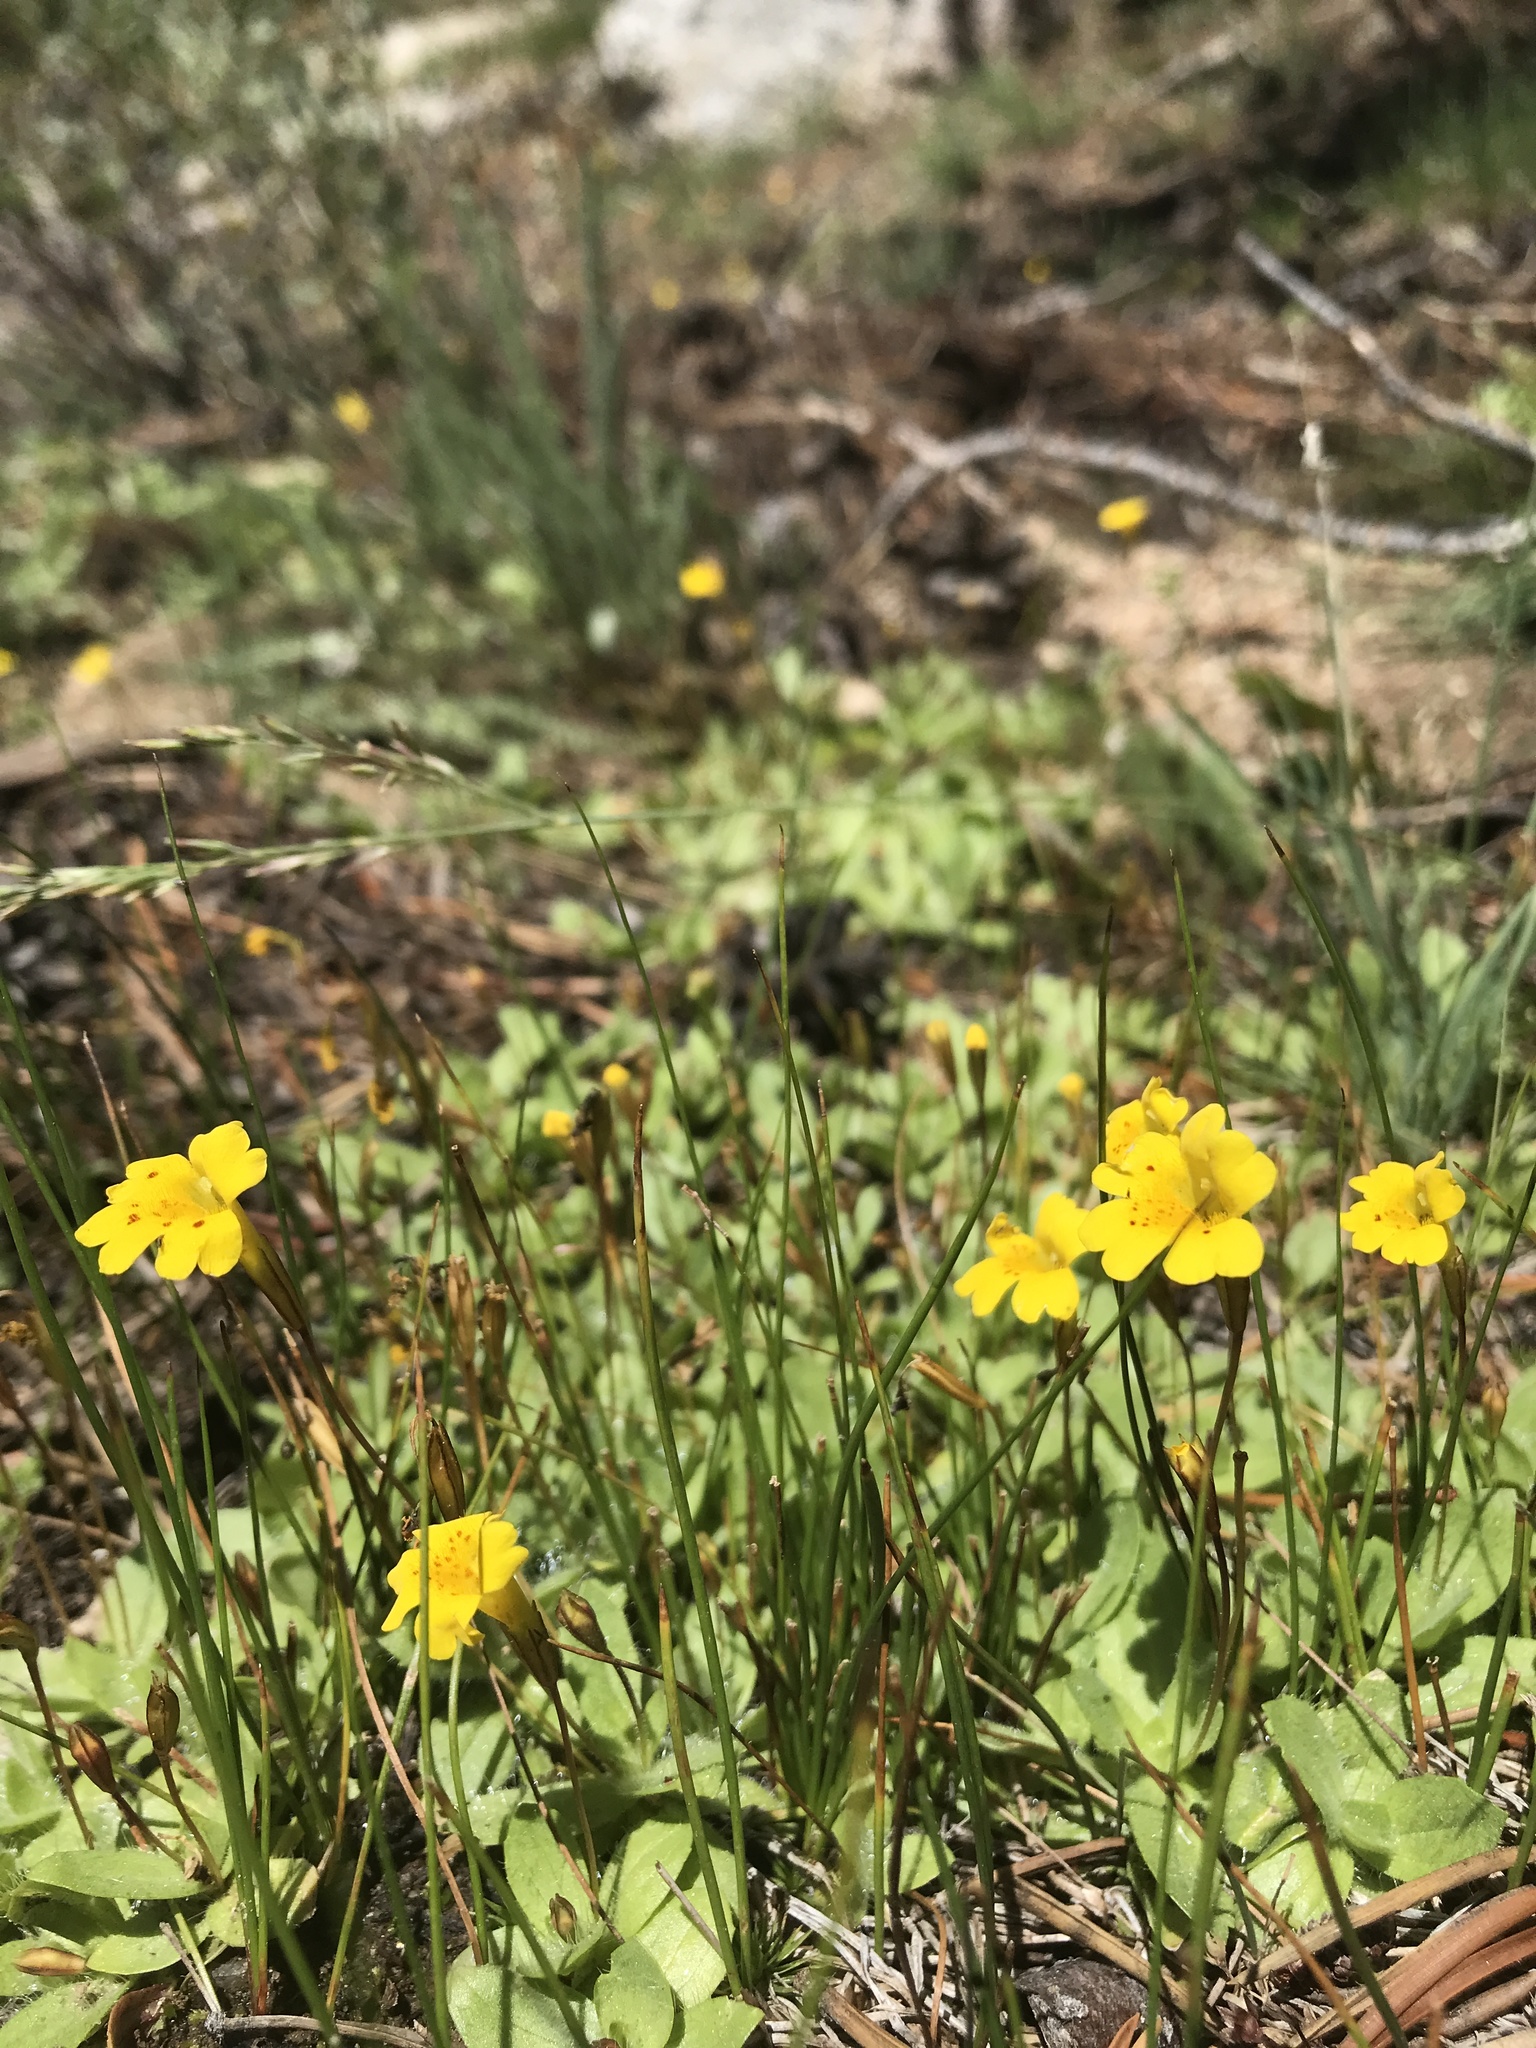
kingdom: Plantae
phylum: Tracheophyta
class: Magnoliopsida
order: Lamiales
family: Phrymaceae
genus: Erythranthe
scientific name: Erythranthe primuloides
